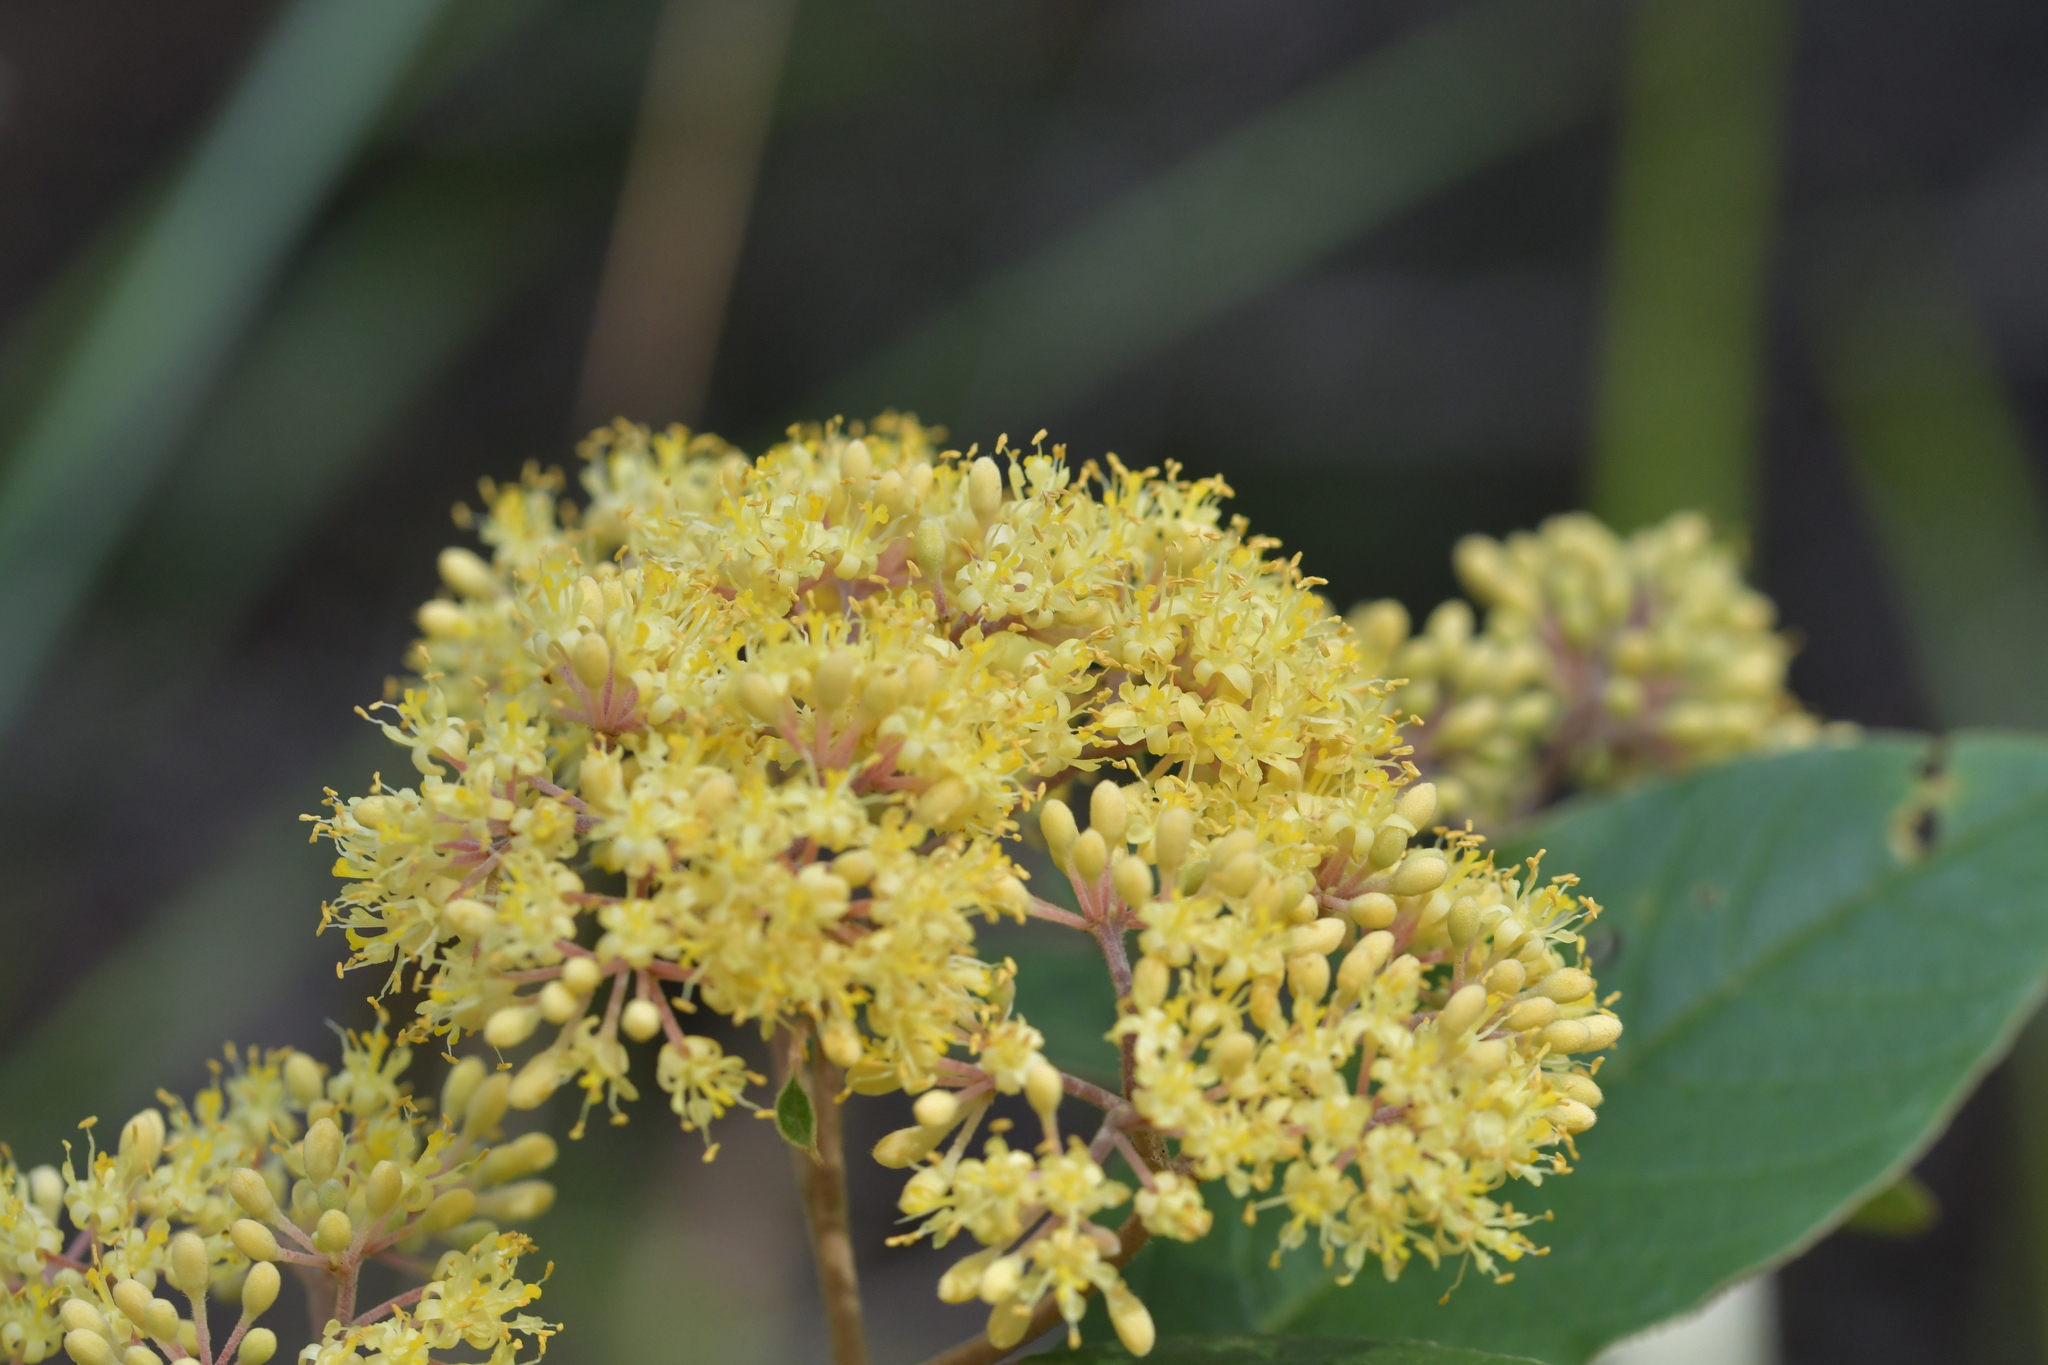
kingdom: Plantae
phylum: Tracheophyta
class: Magnoliopsida
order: Rosales
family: Rhamnaceae
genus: Pomaderris
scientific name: Pomaderris kumeraho
